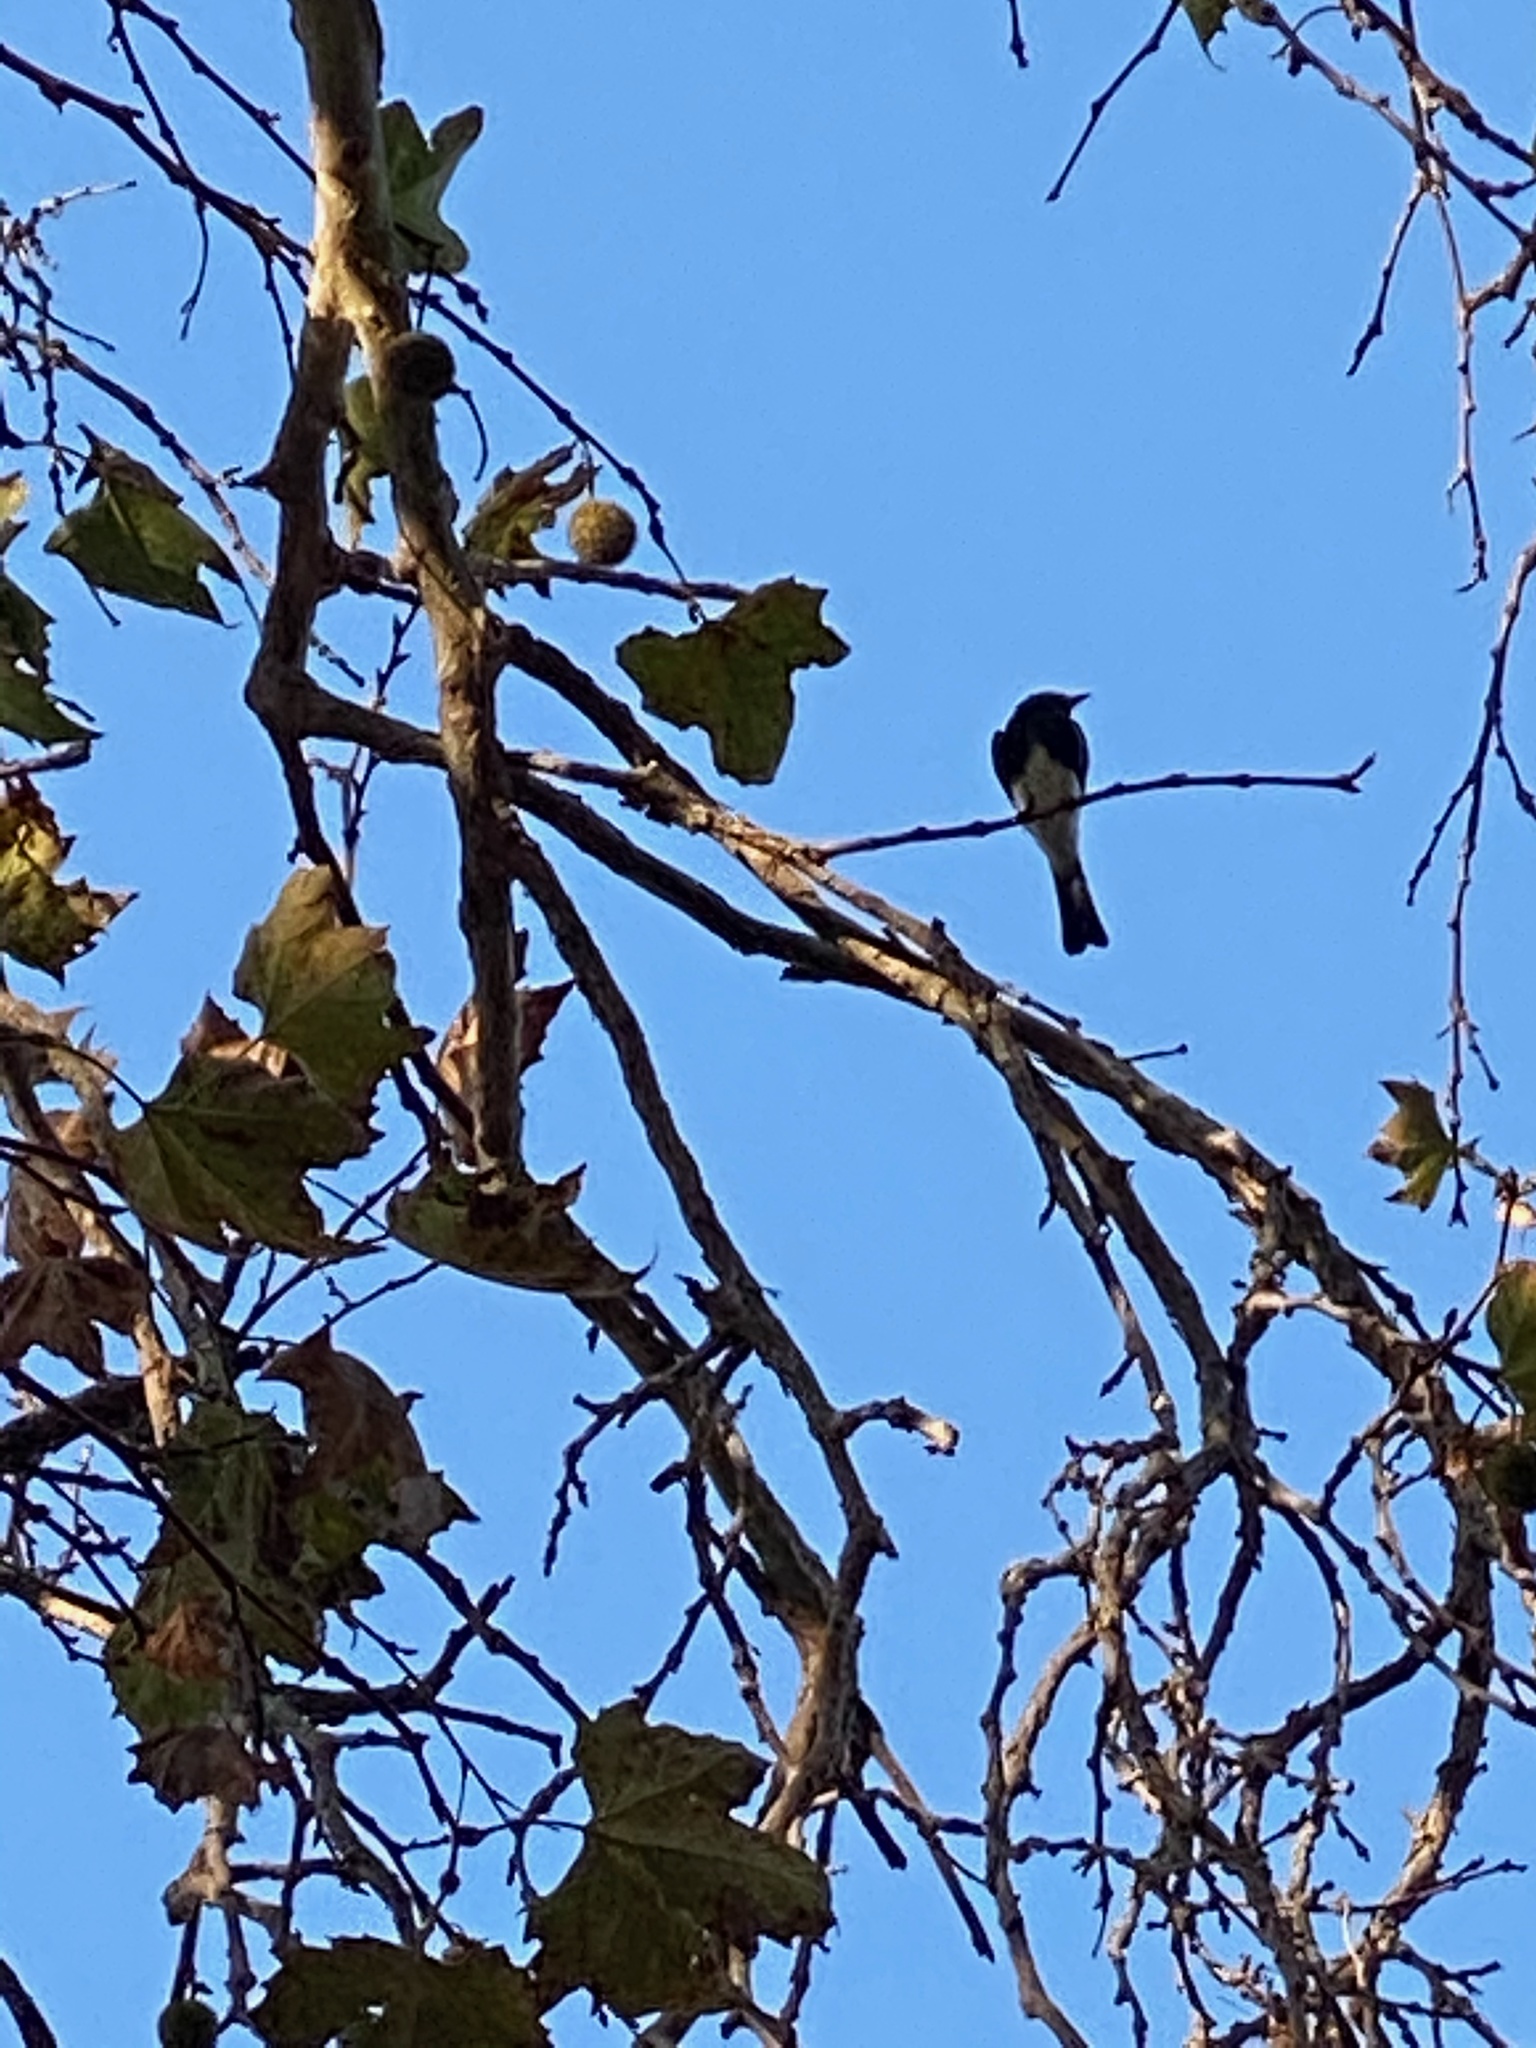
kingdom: Animalia
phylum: Chordata
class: Aves
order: Passeriformes
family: Tyrannidae
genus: Sayornis
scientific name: Sayornis nigricans
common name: Black phoebe
